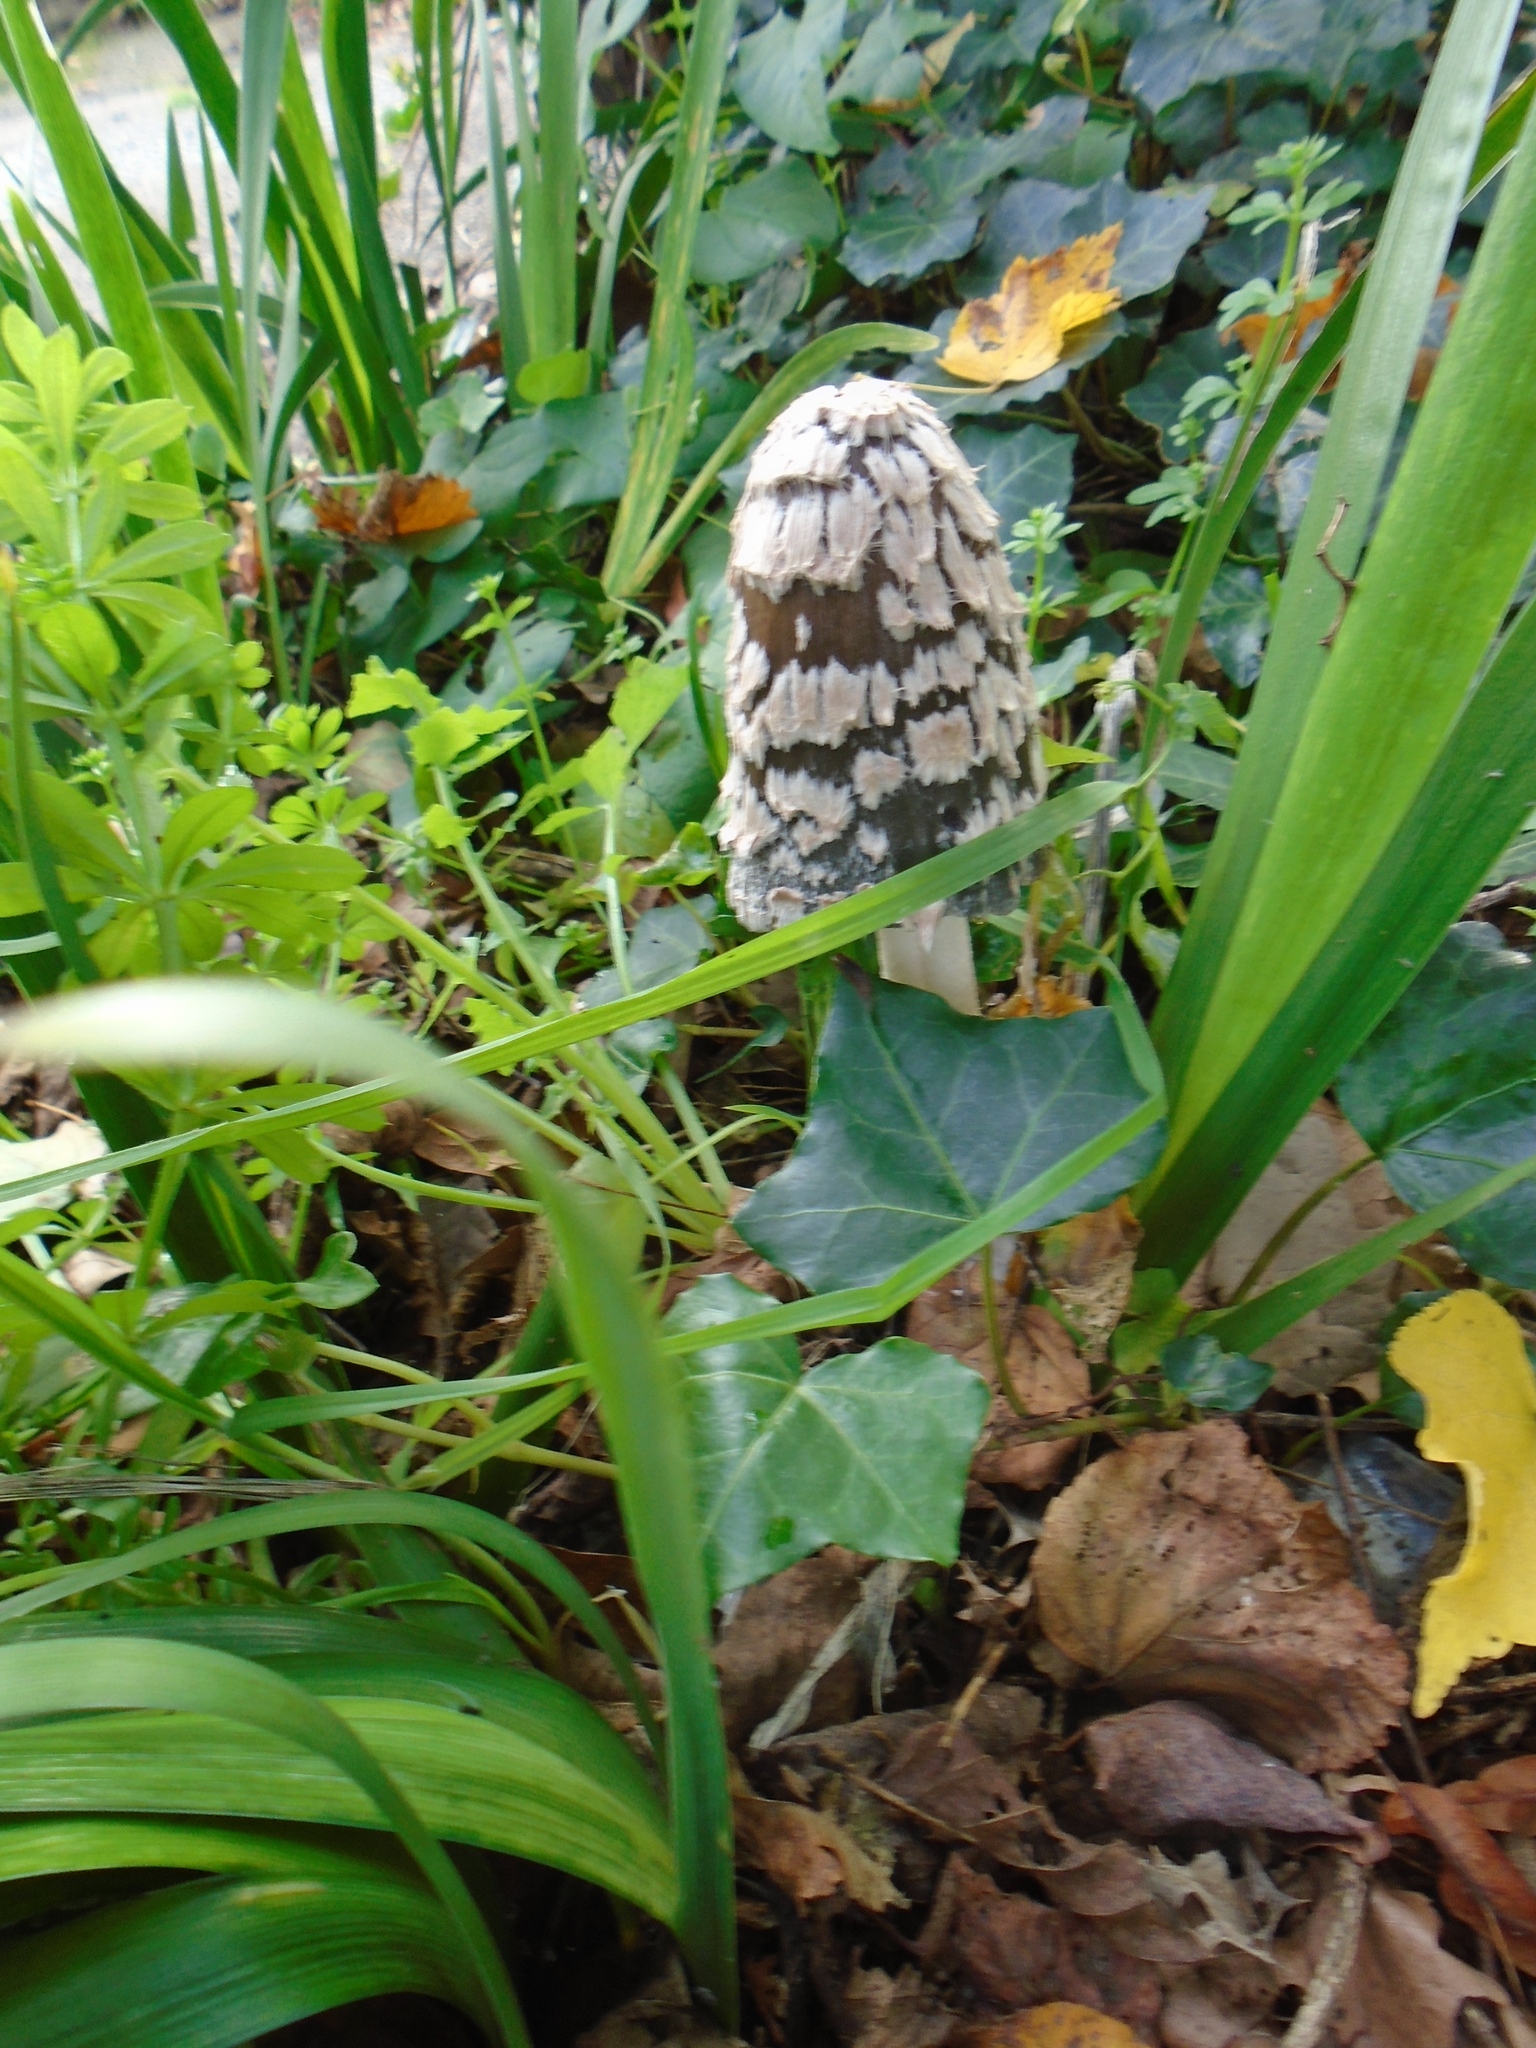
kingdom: Fungi
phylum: Basidiomycota
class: Agaricomycetes
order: Agaricales
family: Psathyrellaceae
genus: Coprinopsis
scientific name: Coprinopsis picacea
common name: Magpie inkcap
